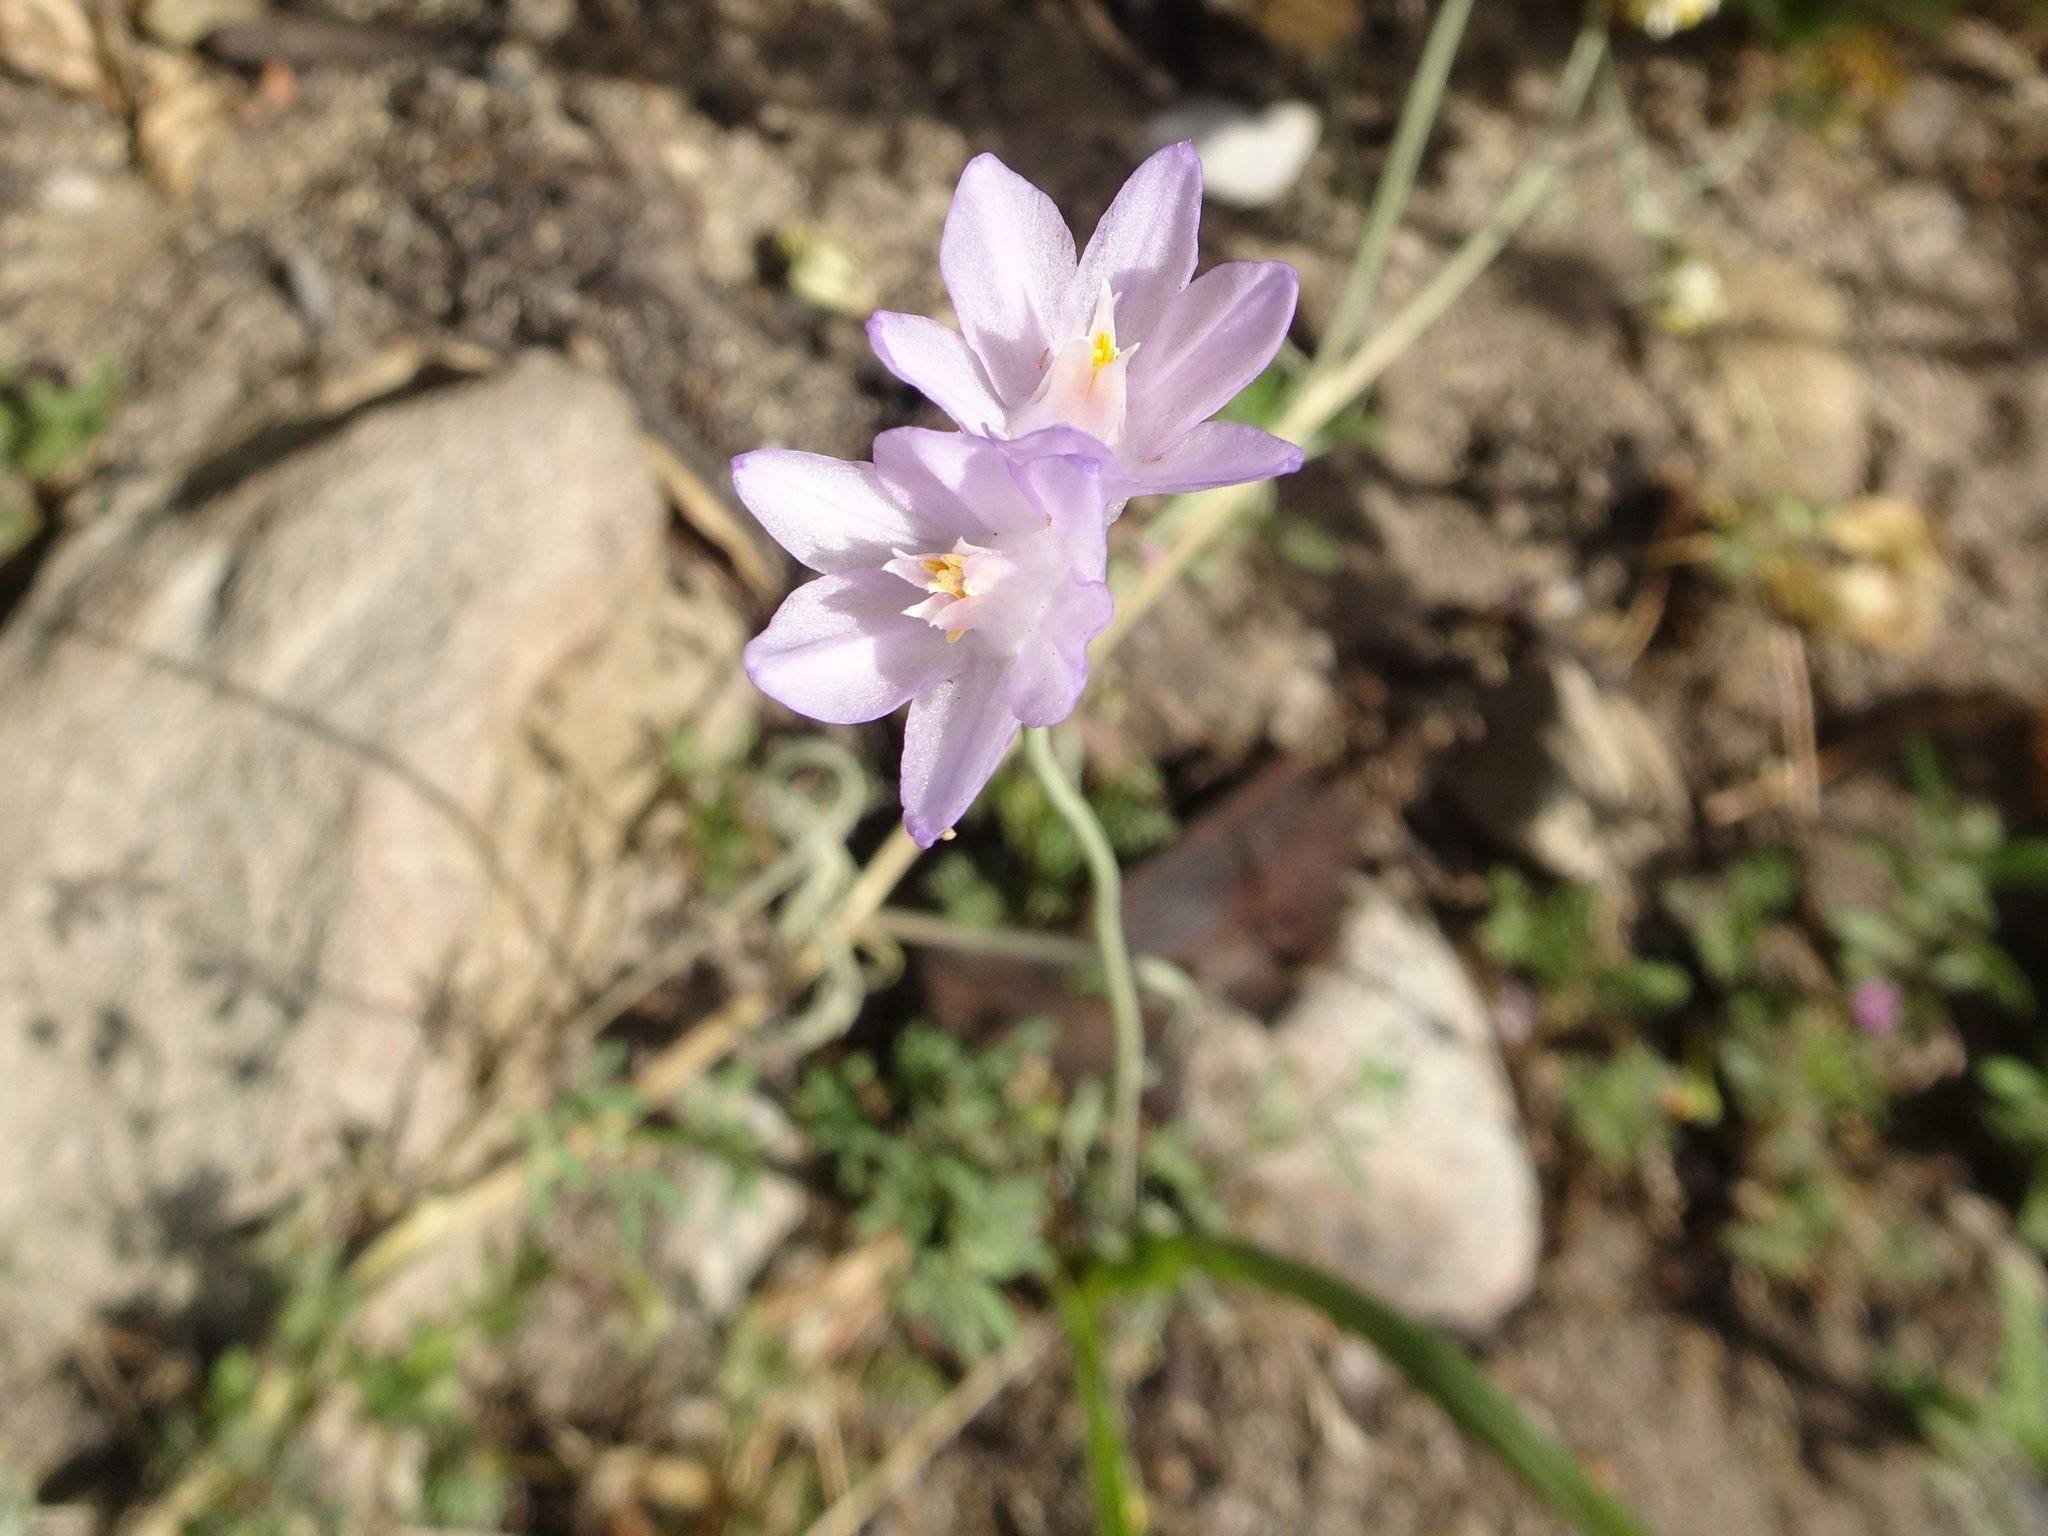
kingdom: Plantae
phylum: Tracheophyta
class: Liliopsida
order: Asparagales
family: Asparagaceae
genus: Dipterostemon
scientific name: Dipterostemon capitatus
